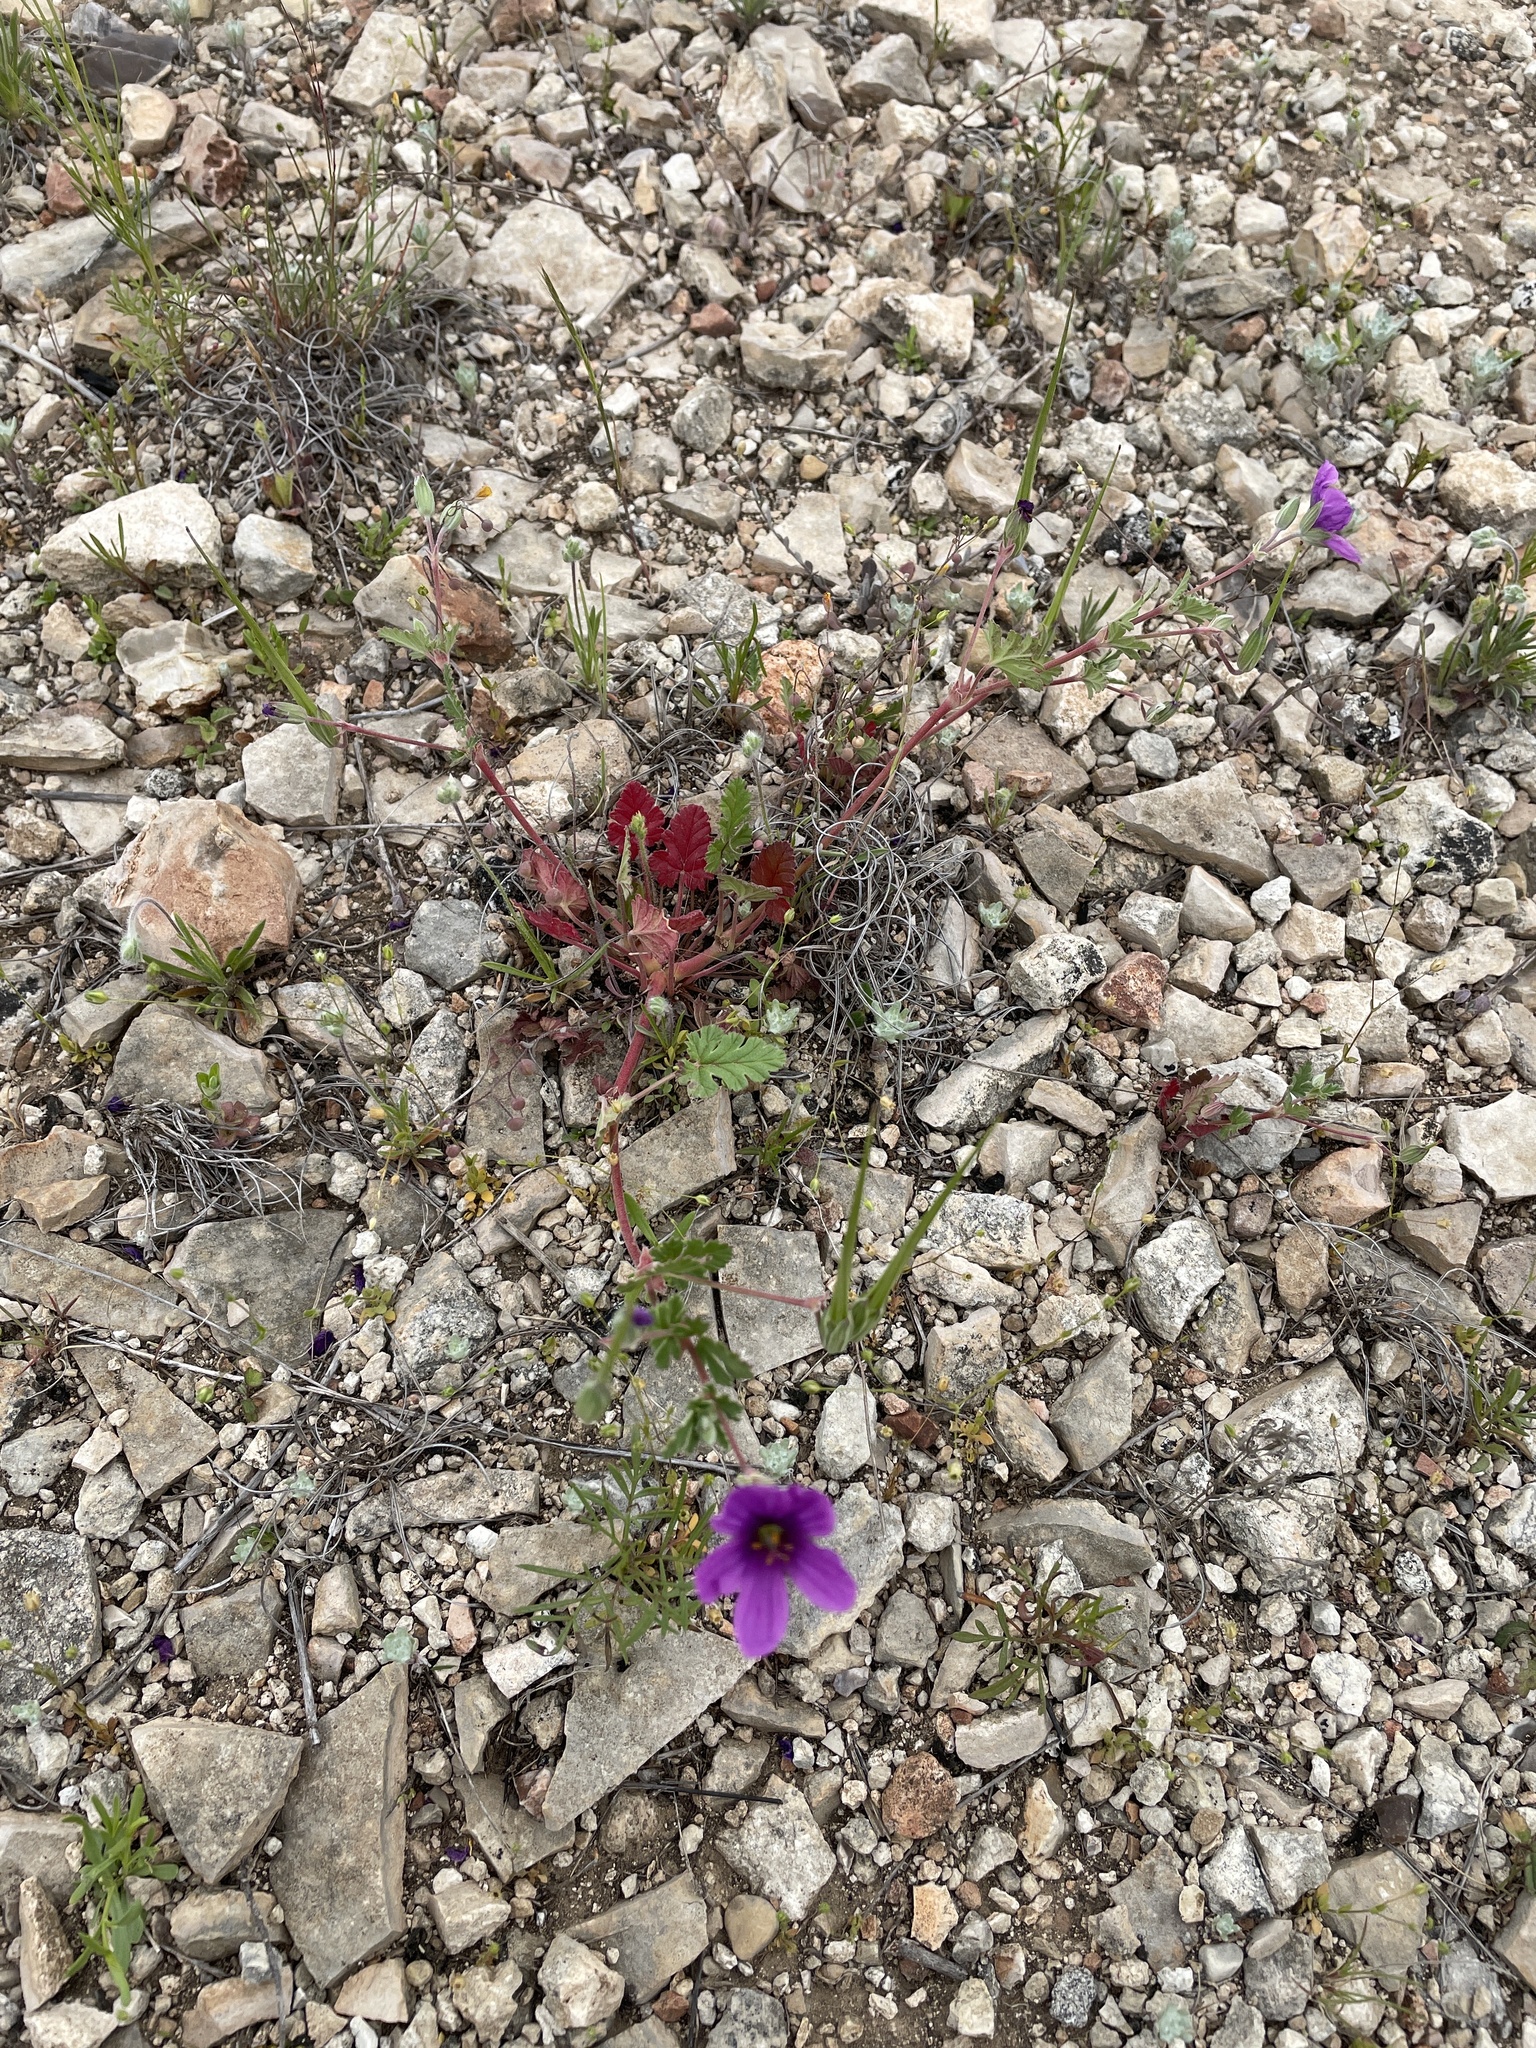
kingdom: Plantae
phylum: Tracheophyta
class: Magnoliopsida
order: Geraniales
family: Geraniaceae
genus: Erodium
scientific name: Erodium texanum
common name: Texas stork's-bill
